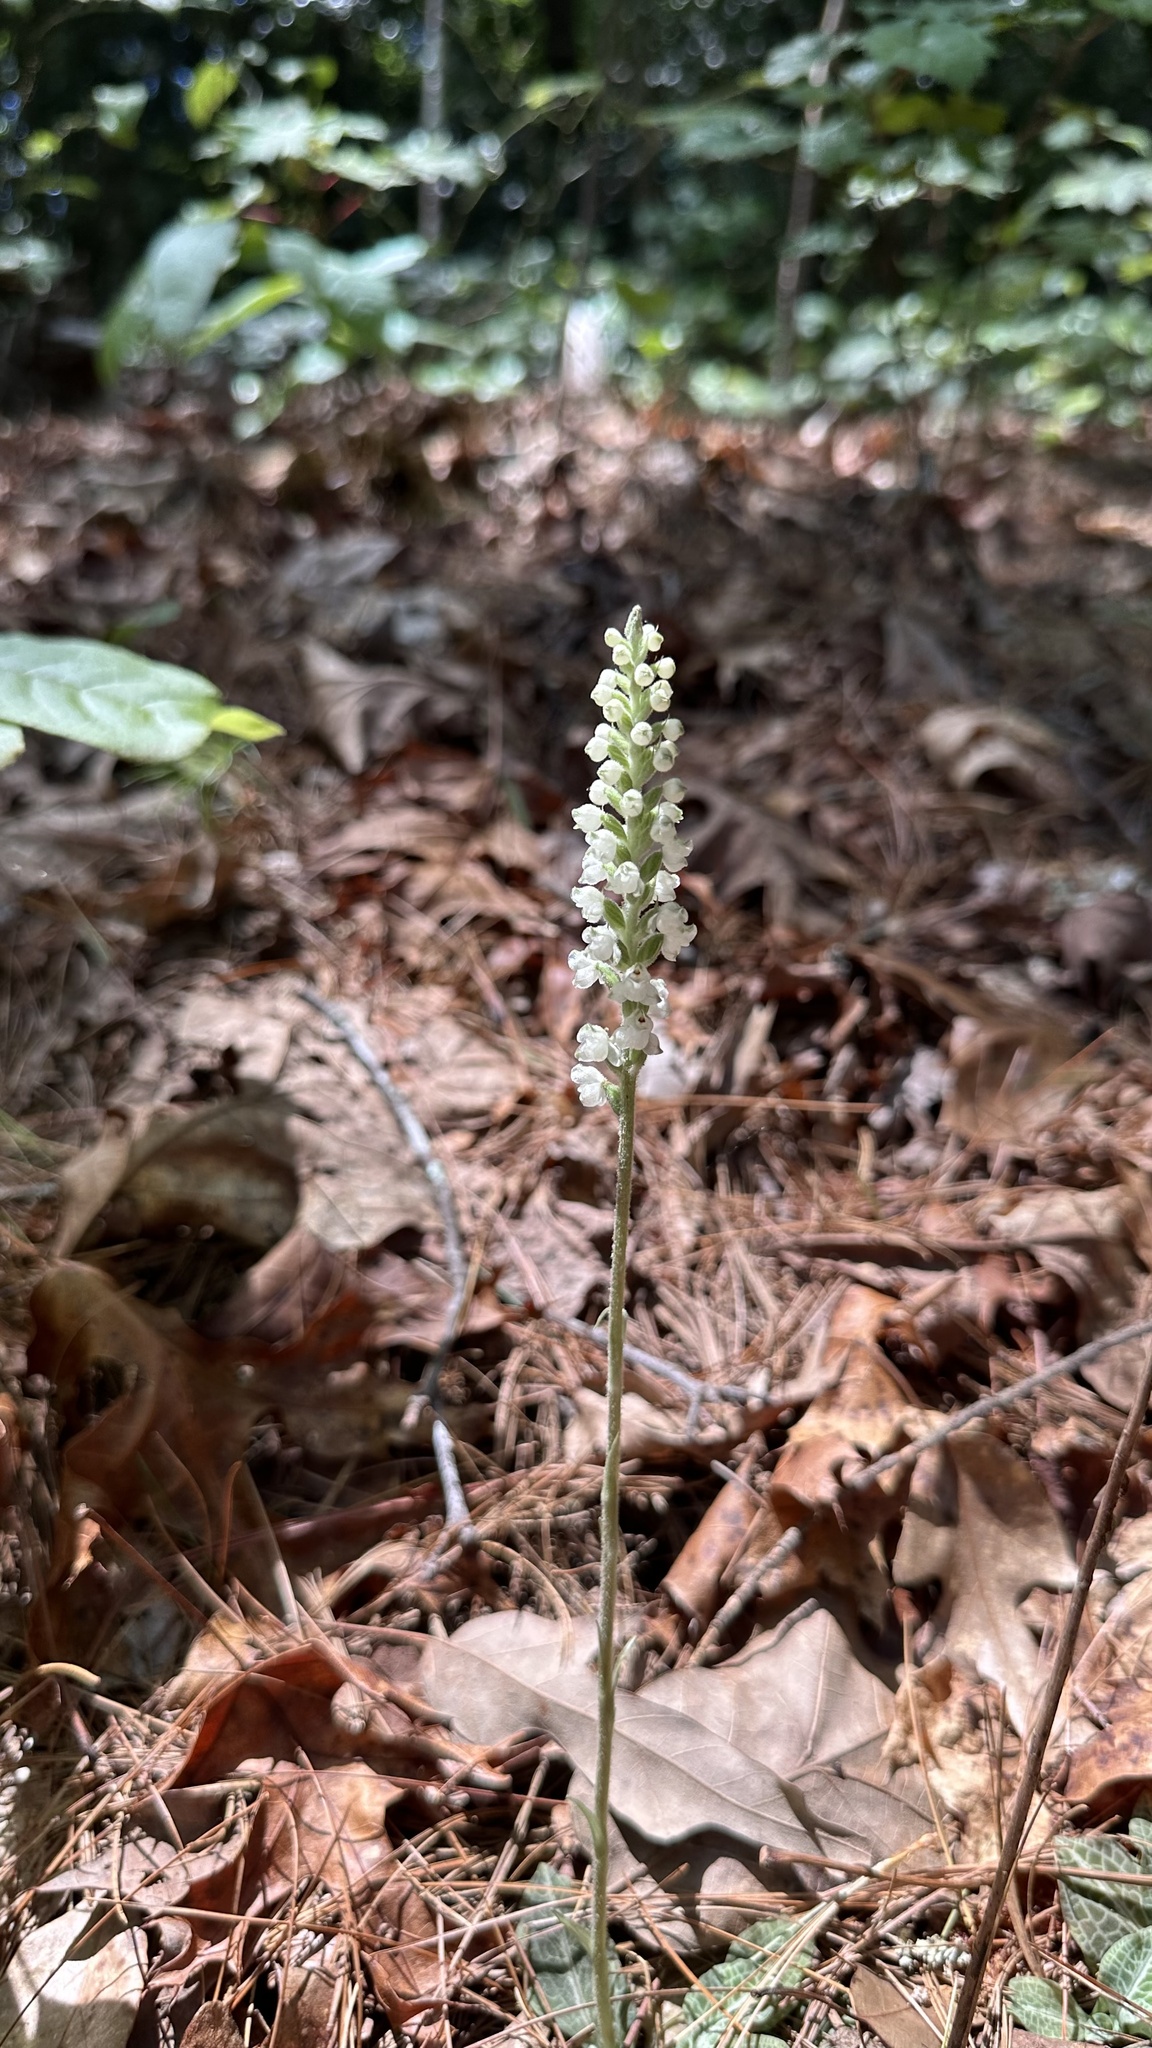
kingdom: Plantae
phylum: Tracheophyta
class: Liliopsida
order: Asparagales
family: Orchidaceae
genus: Goodyera
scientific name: Goodyera pubescens
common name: Downy rattlesnake-plantain
